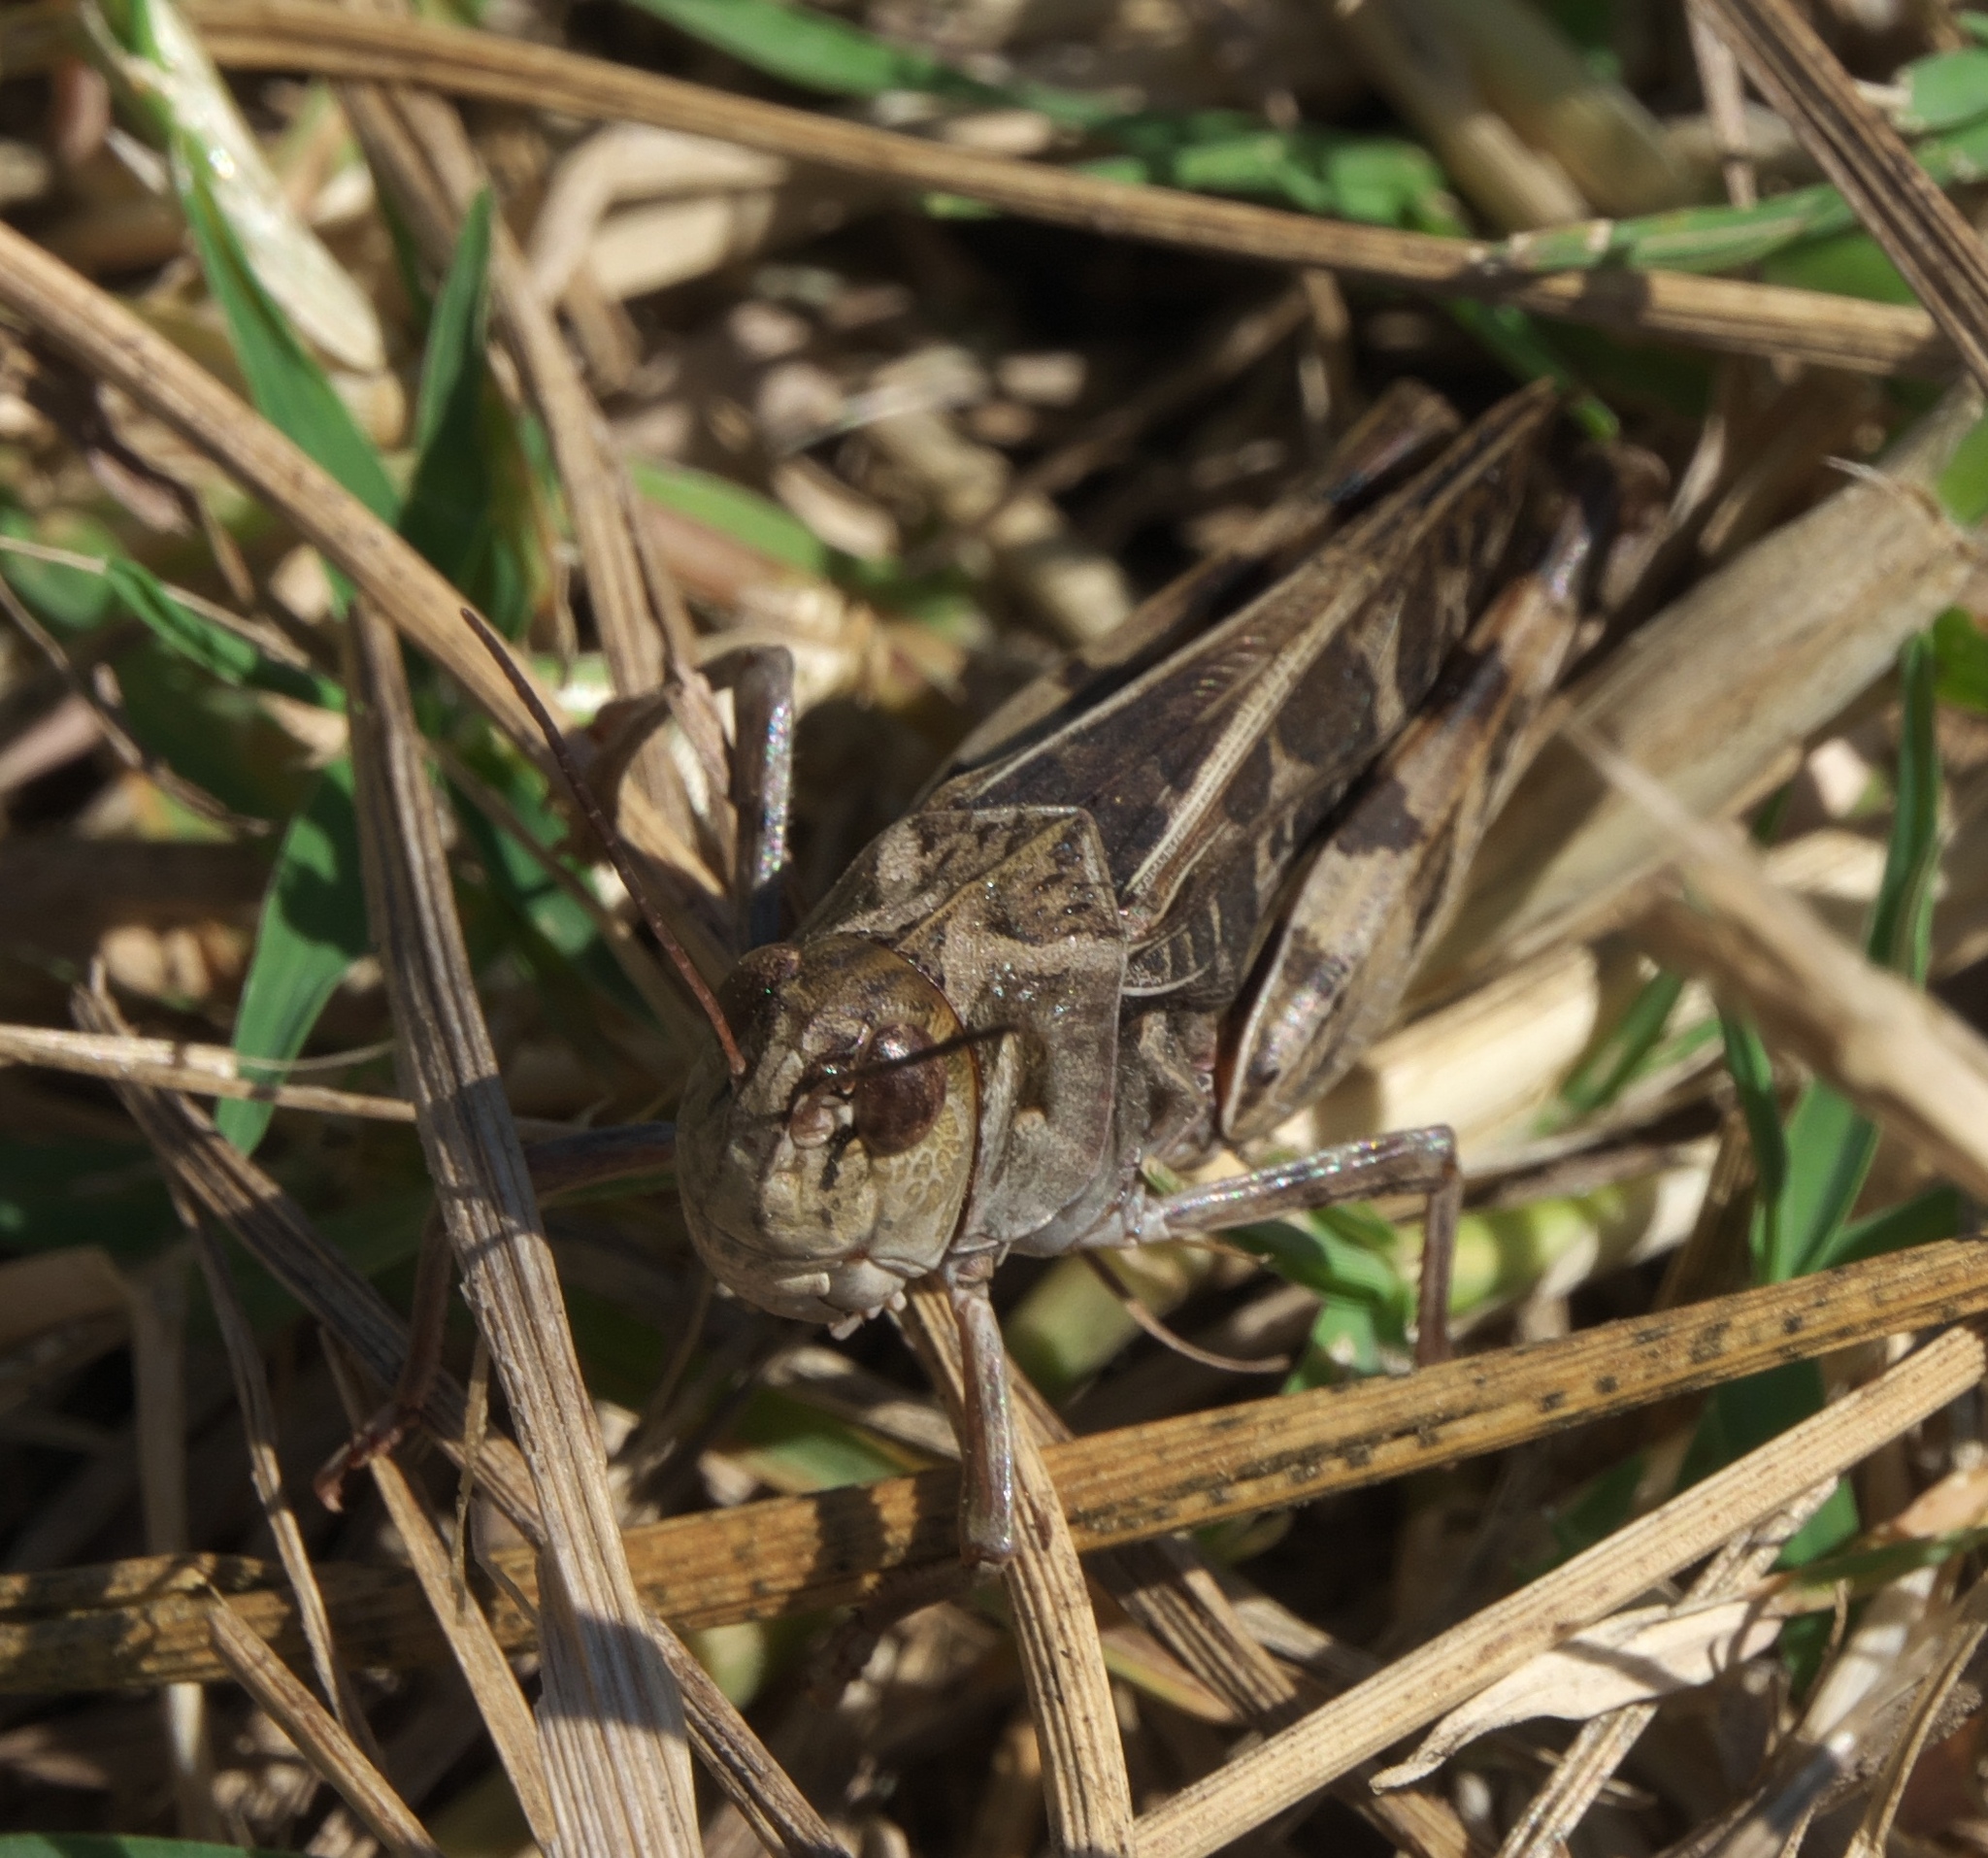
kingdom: Animalia
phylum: Arthropoda
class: Insecta
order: Orthoptera
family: Acrididae
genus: Hippiscus
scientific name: Hippiscus ocelote
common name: Wrinkled grasshopper
